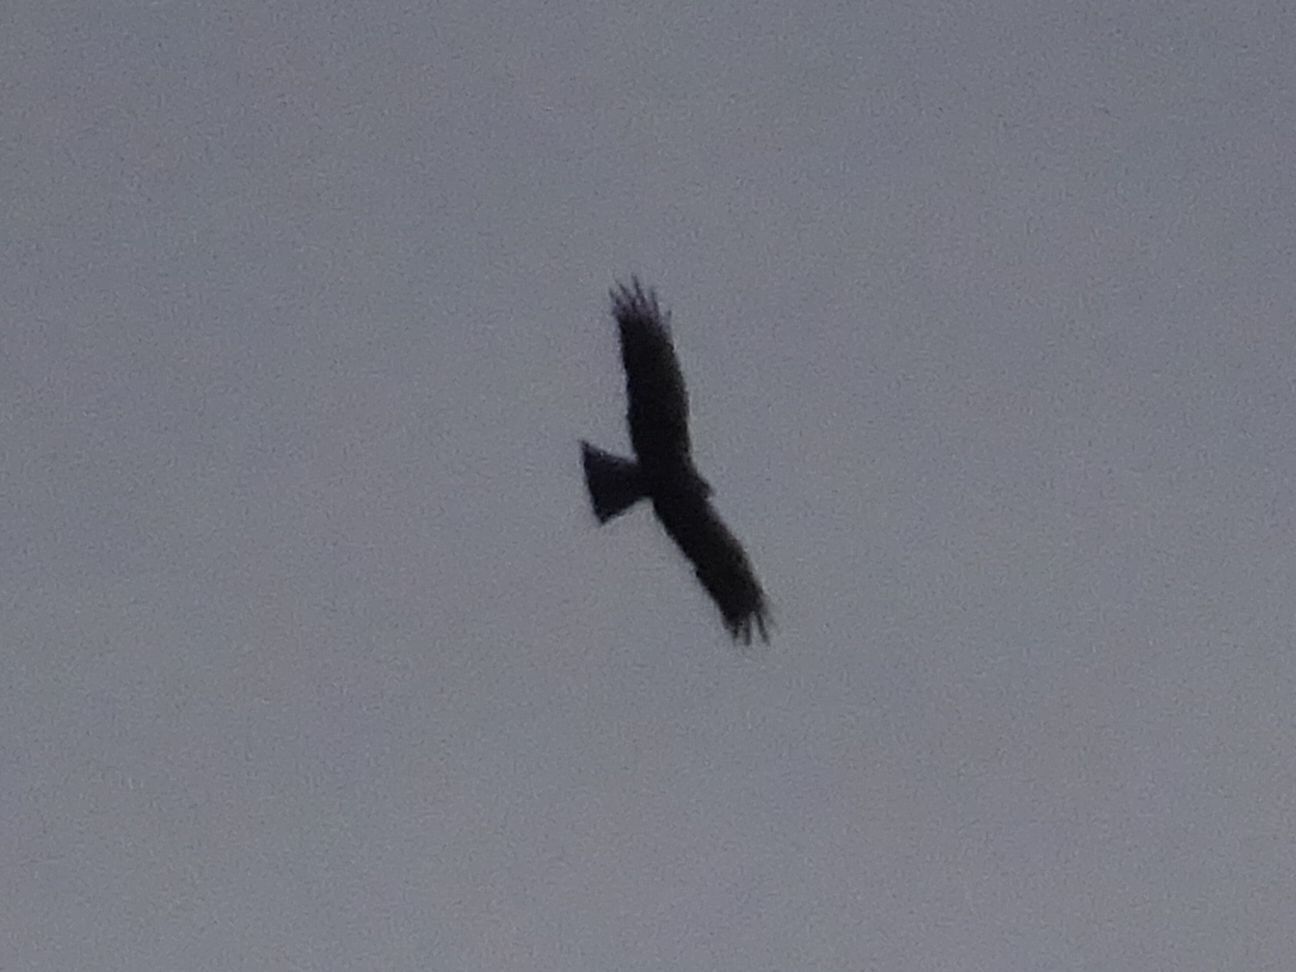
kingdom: Animalia
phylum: Chordata
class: Aves
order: Accipitriformes
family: Accipitridae
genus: Milvus
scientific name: Milvus migrans
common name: Black kite
